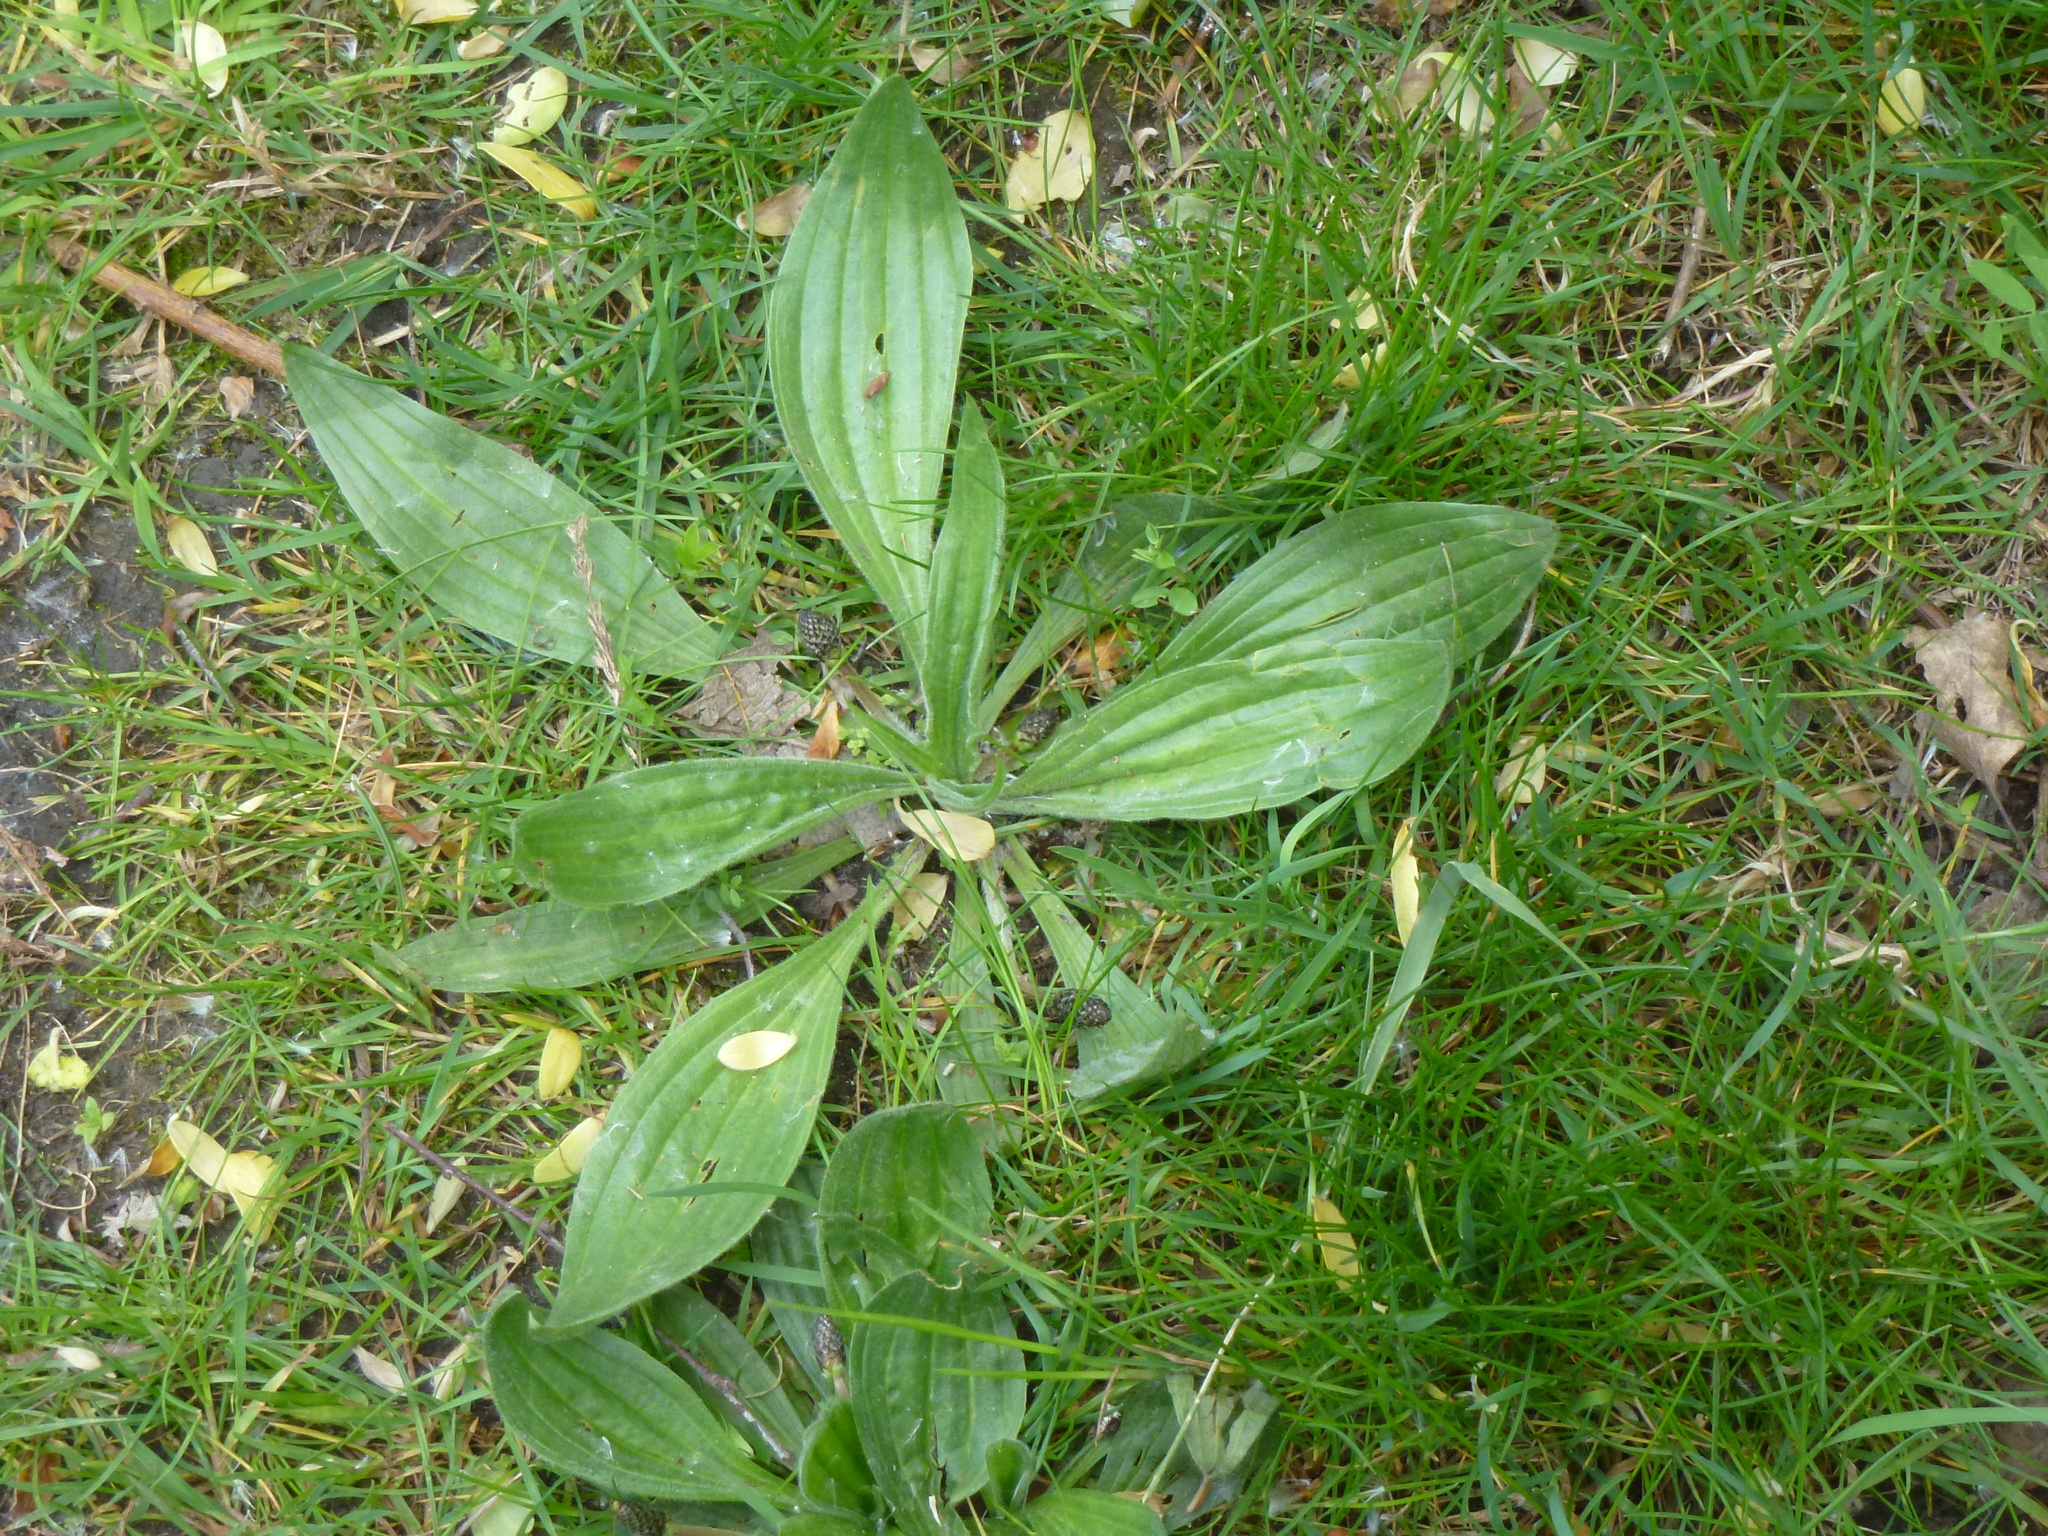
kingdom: Plantae
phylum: Tracheophyta
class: Magnoliopsida
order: Lamiales
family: Plantaginaceae
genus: Plantago
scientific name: Plantago lanceolata
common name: Ribwort plantain
